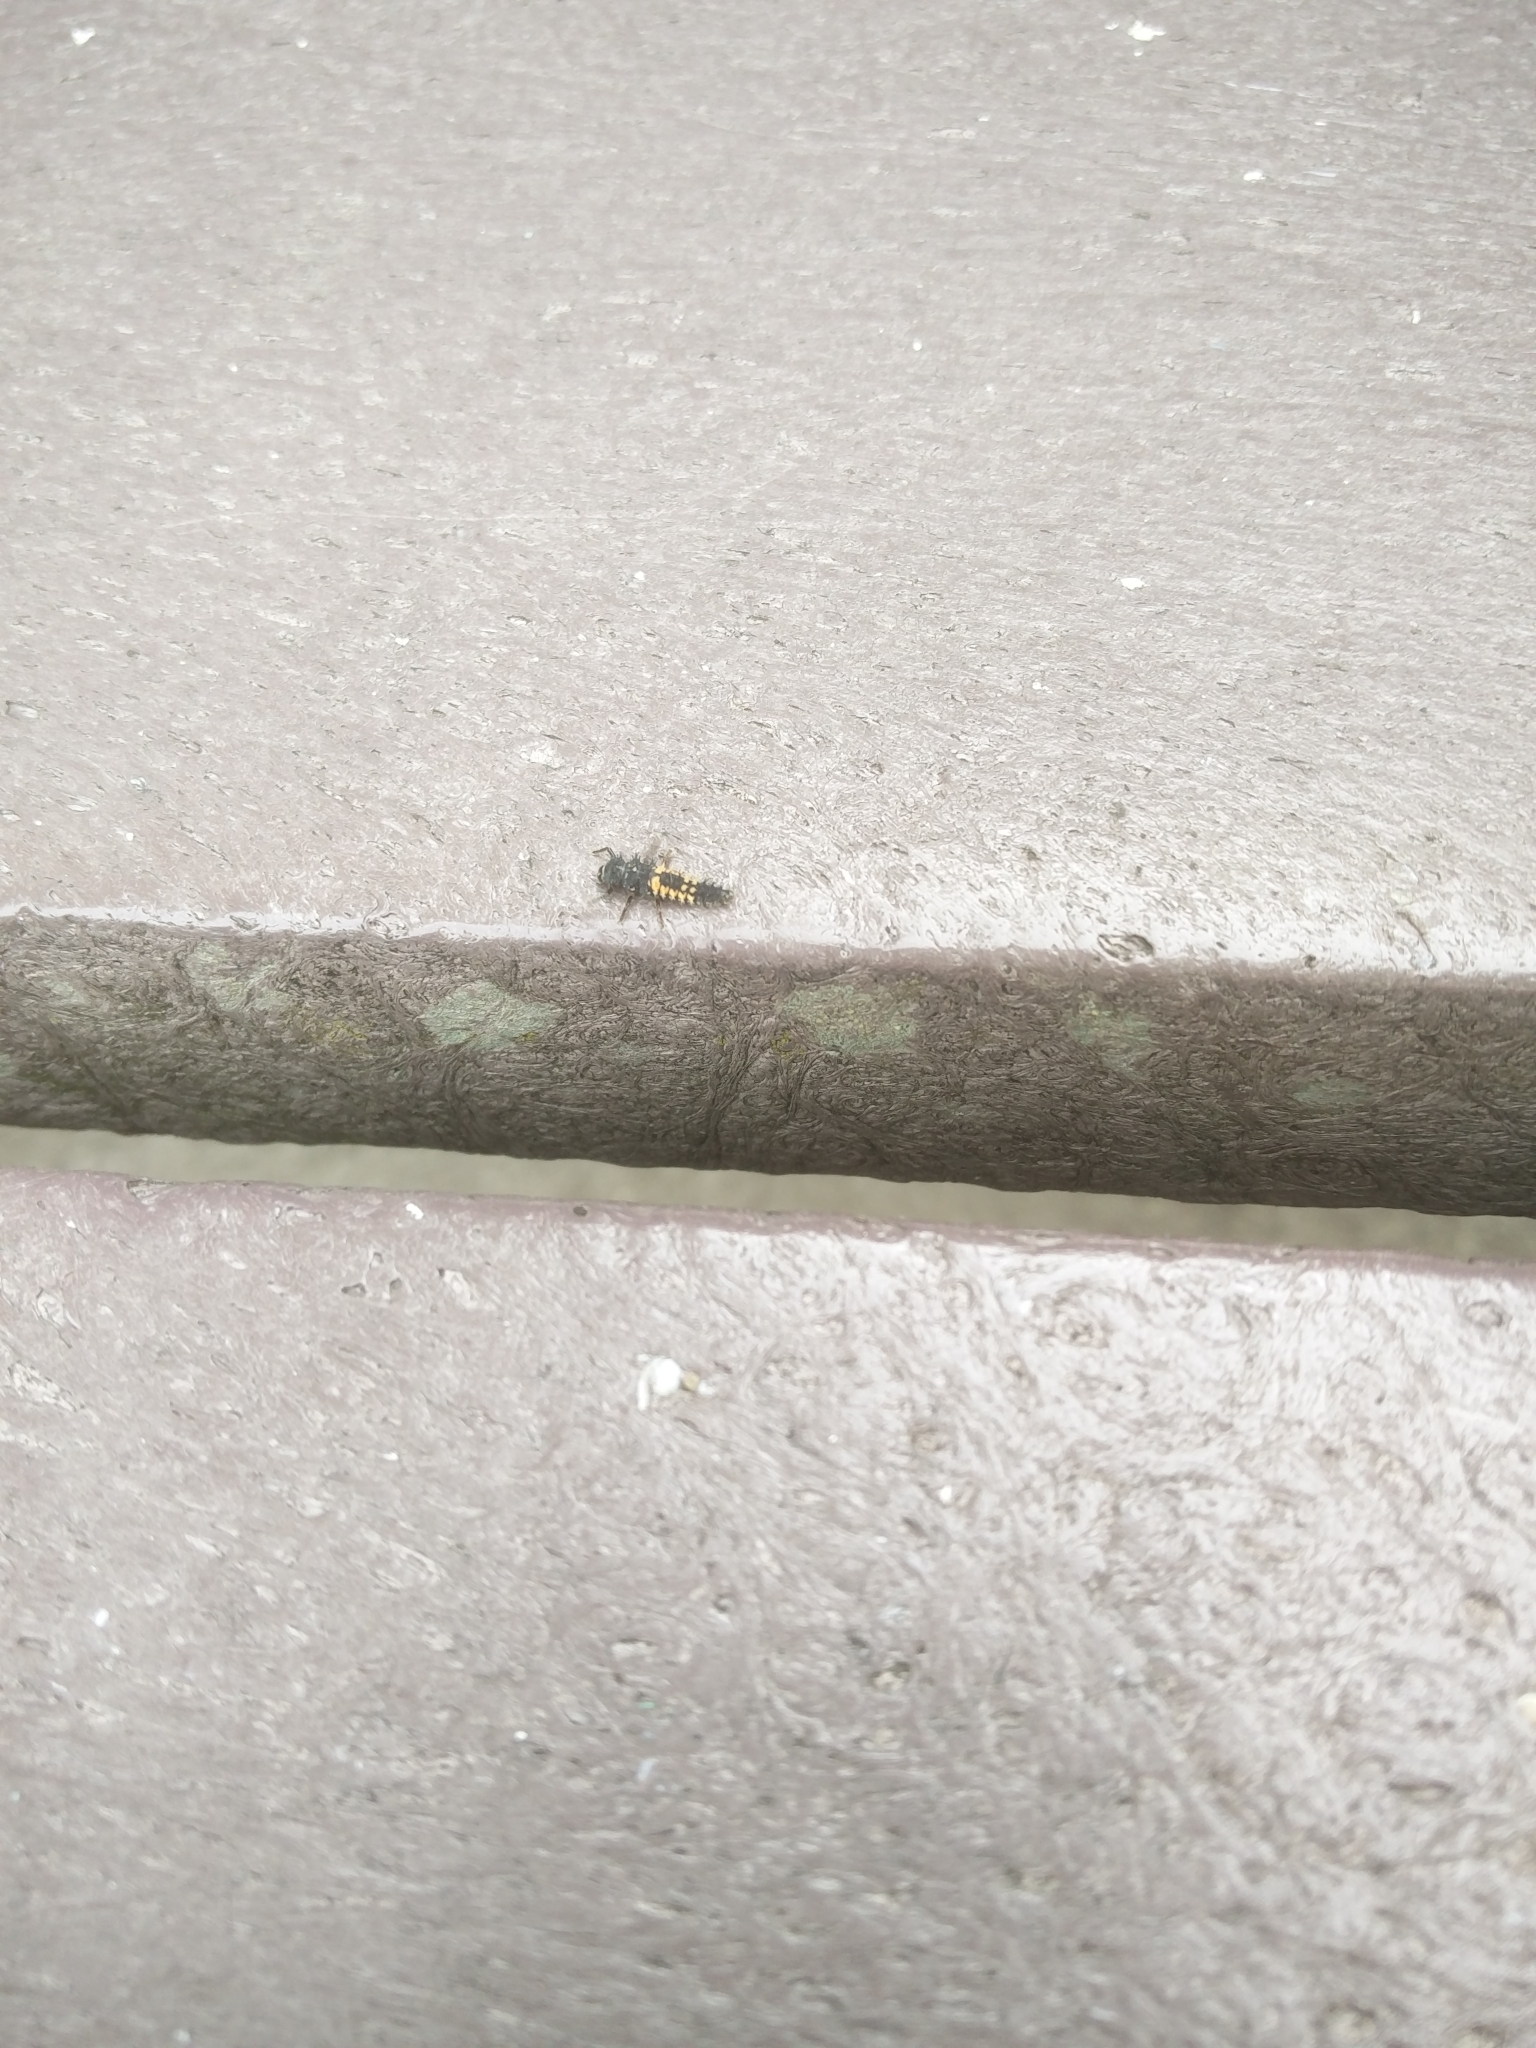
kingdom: Animalia
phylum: Arthropoda
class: Insecta
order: Coleoptera
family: Coccinellidae
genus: Harmonia
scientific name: Harmonia axyridis
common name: Harlequin ladybird
